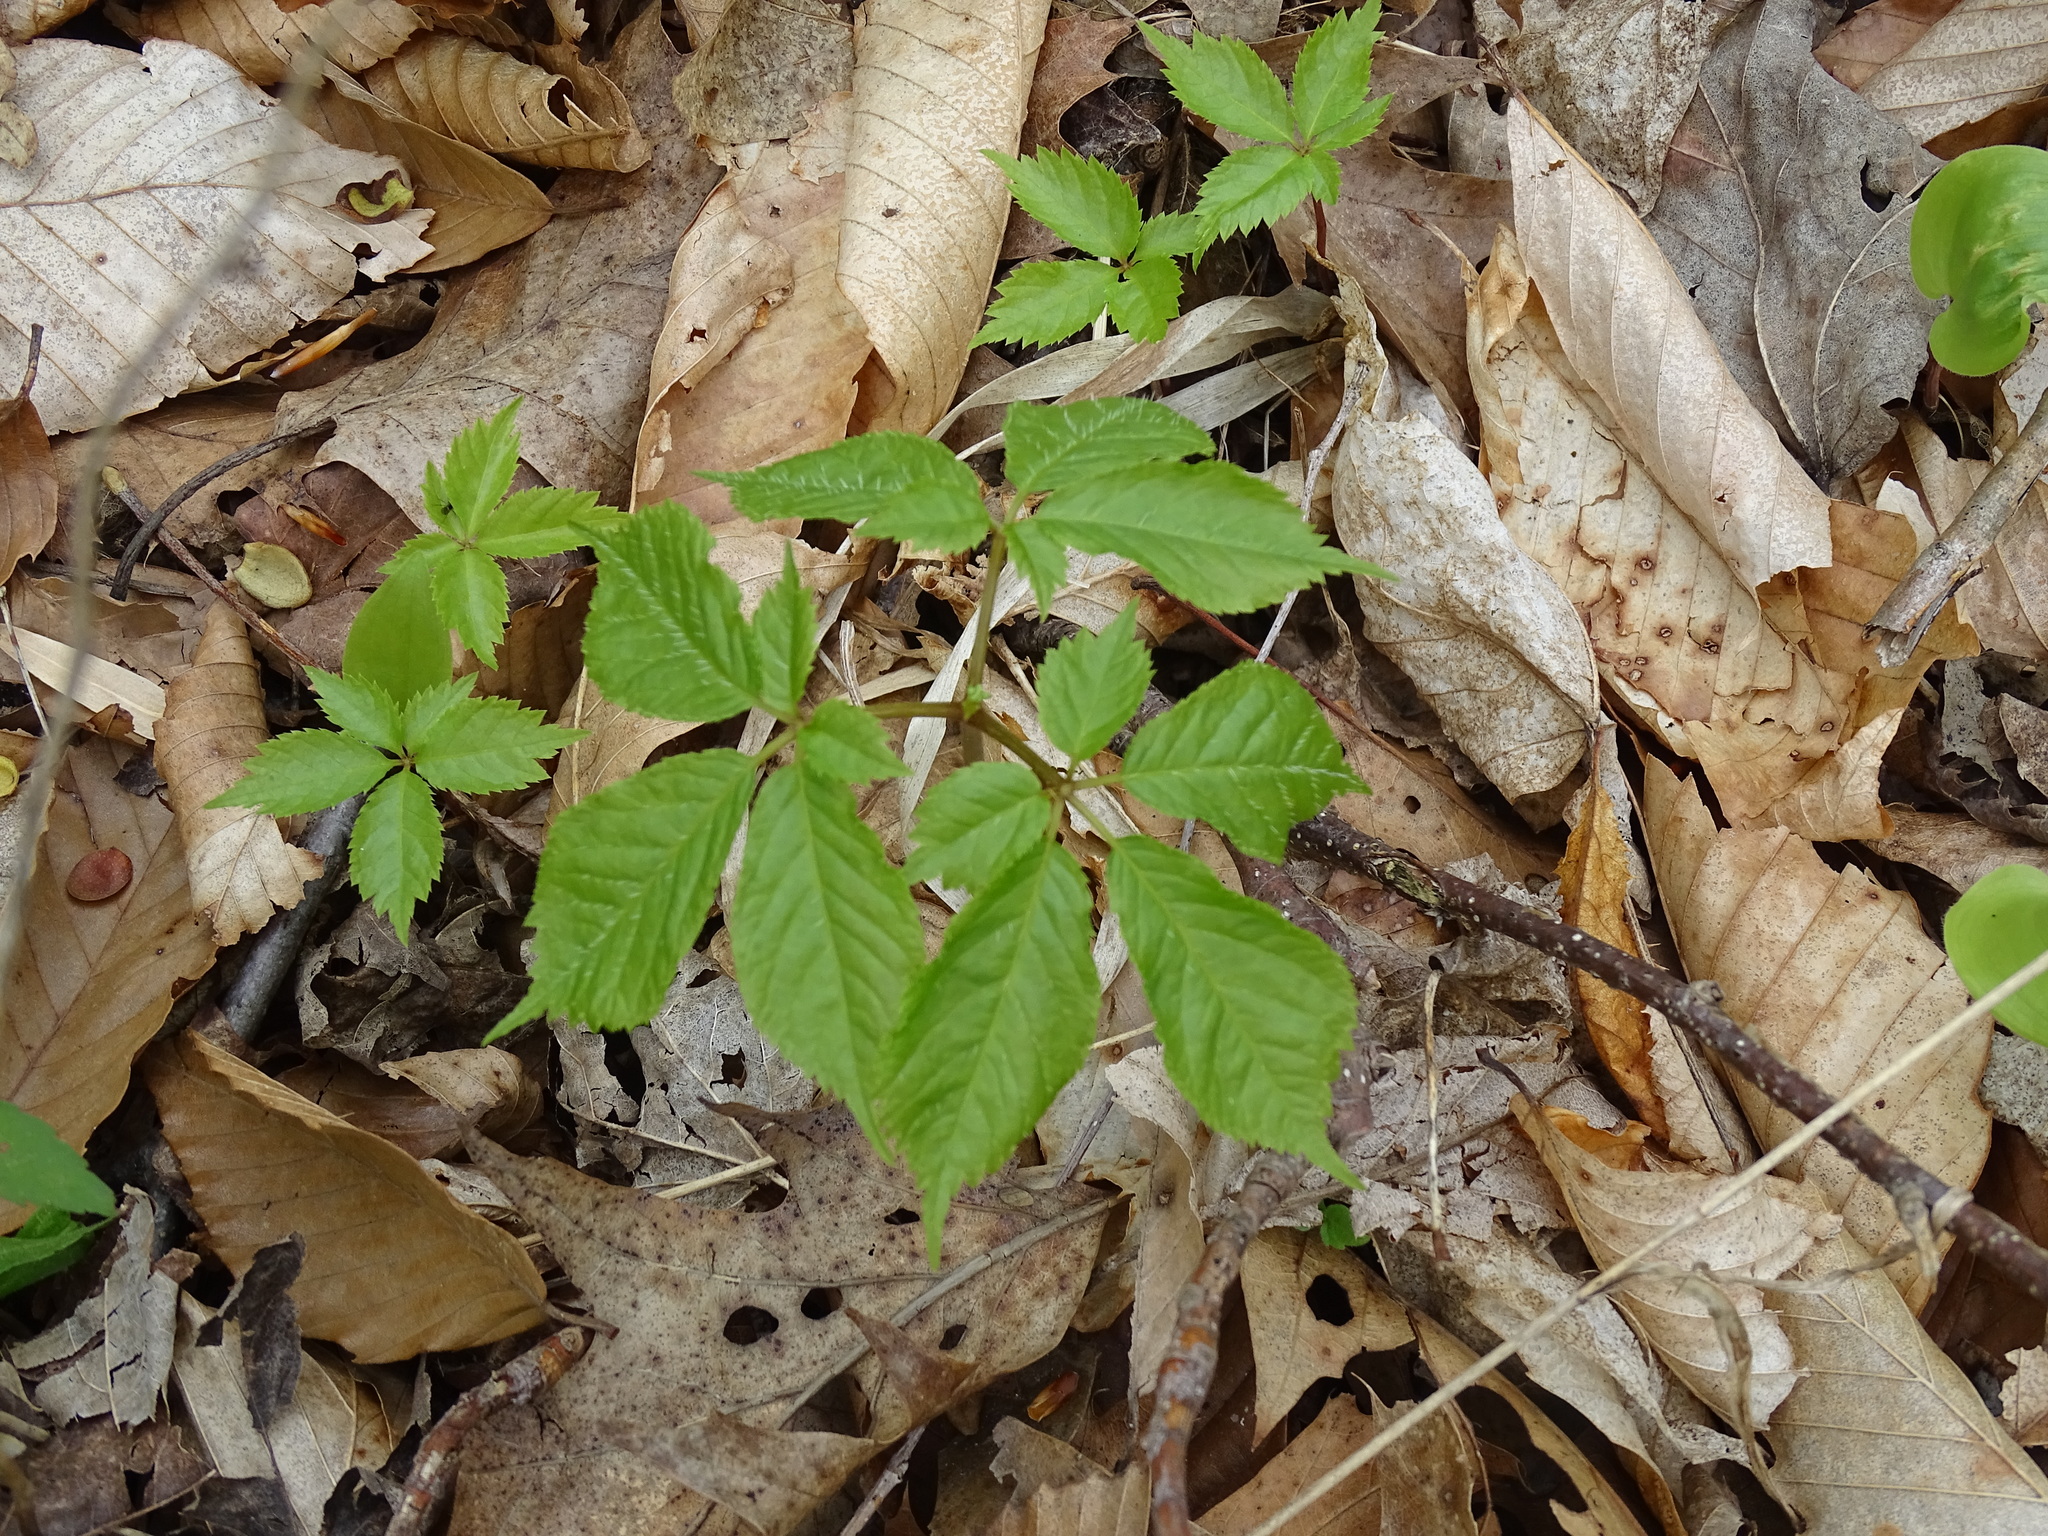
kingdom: Plantae
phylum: Tracheophyta
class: Magnoliopsida
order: Apiales
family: Araliaceae
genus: Panax
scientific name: Panax quinquefolius
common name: American ginseng
